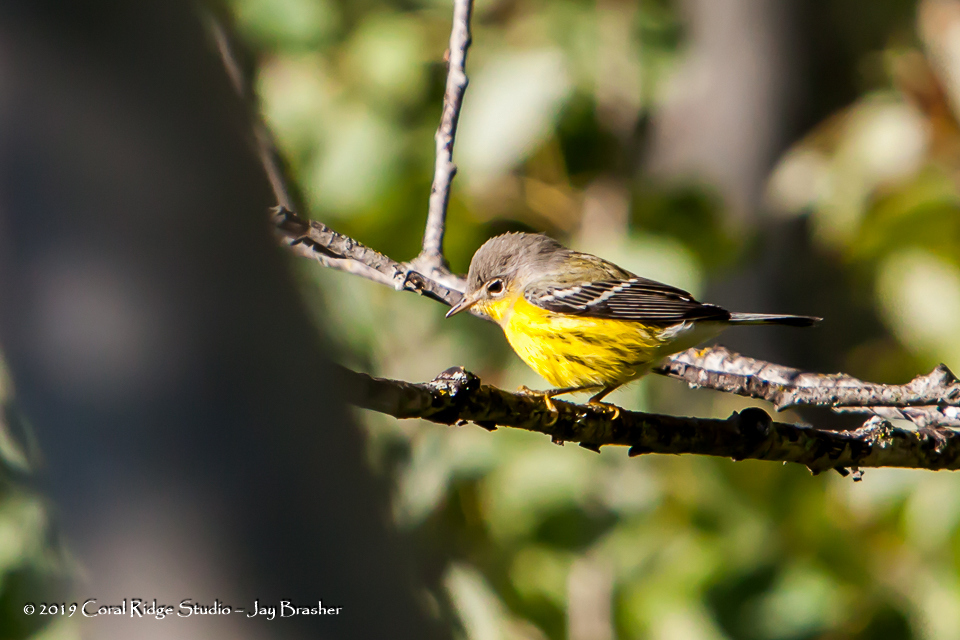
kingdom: Animalia
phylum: Chordata
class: Aves
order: Passeriformes
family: Parulidae
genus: Setophaga
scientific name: Setophaga magnolia
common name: Magnolia warbler
